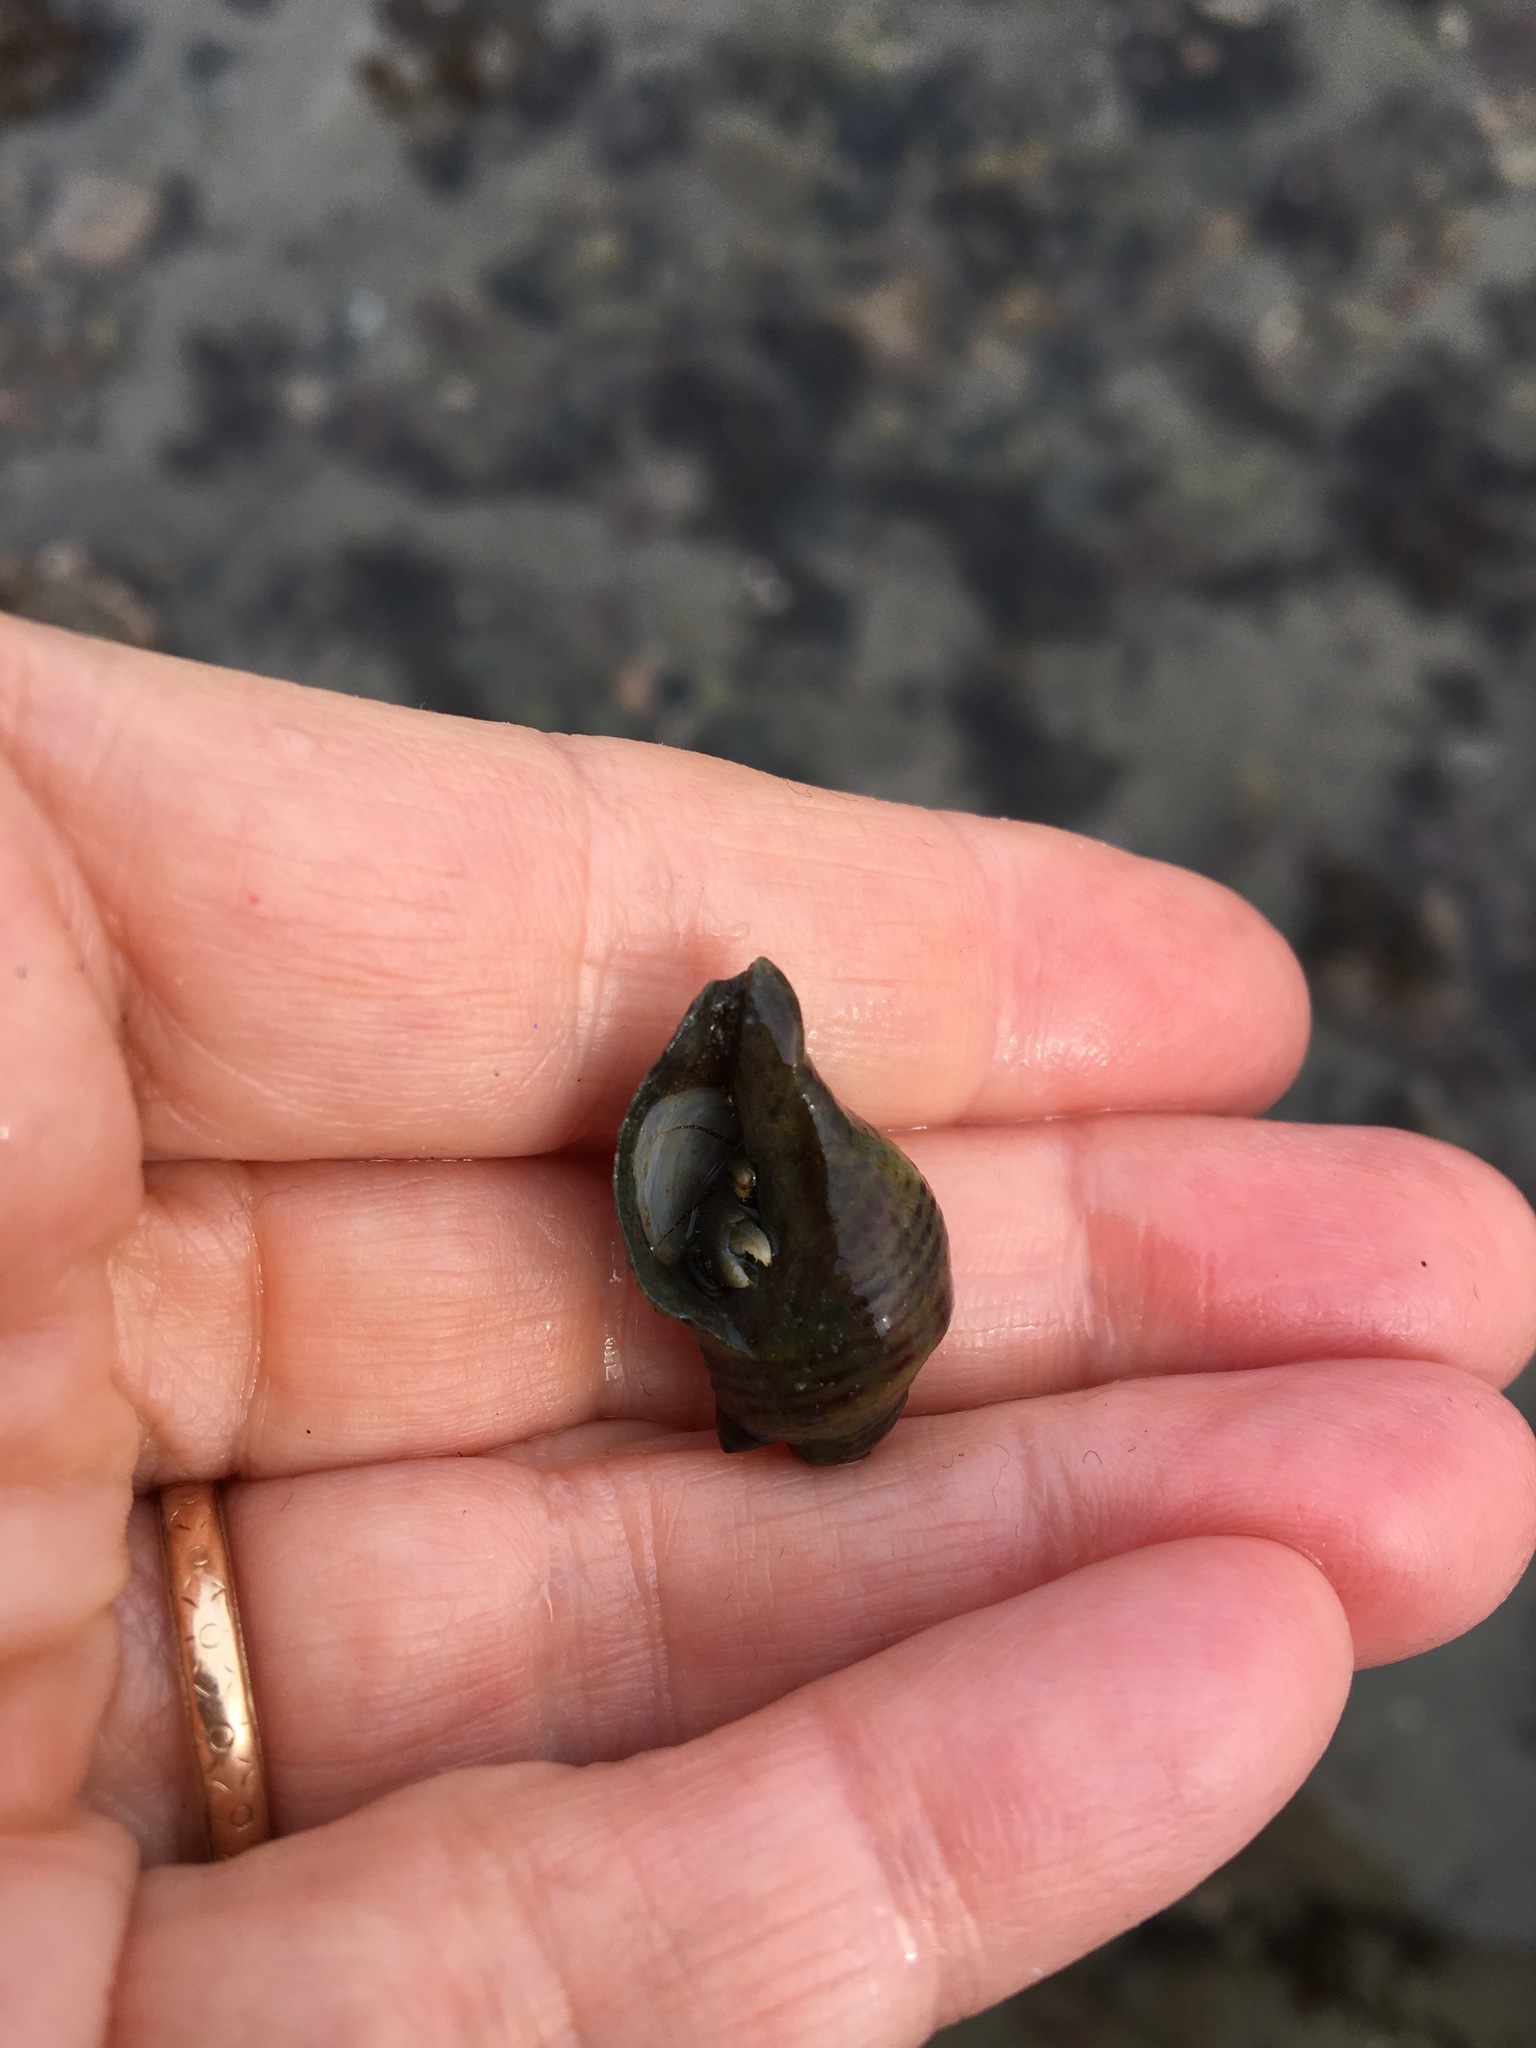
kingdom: Animalia
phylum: Mollusca
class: Gastropoda
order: Neogastropoda
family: Muricidae
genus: Acanthinucella
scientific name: Acanthinucella spirata
